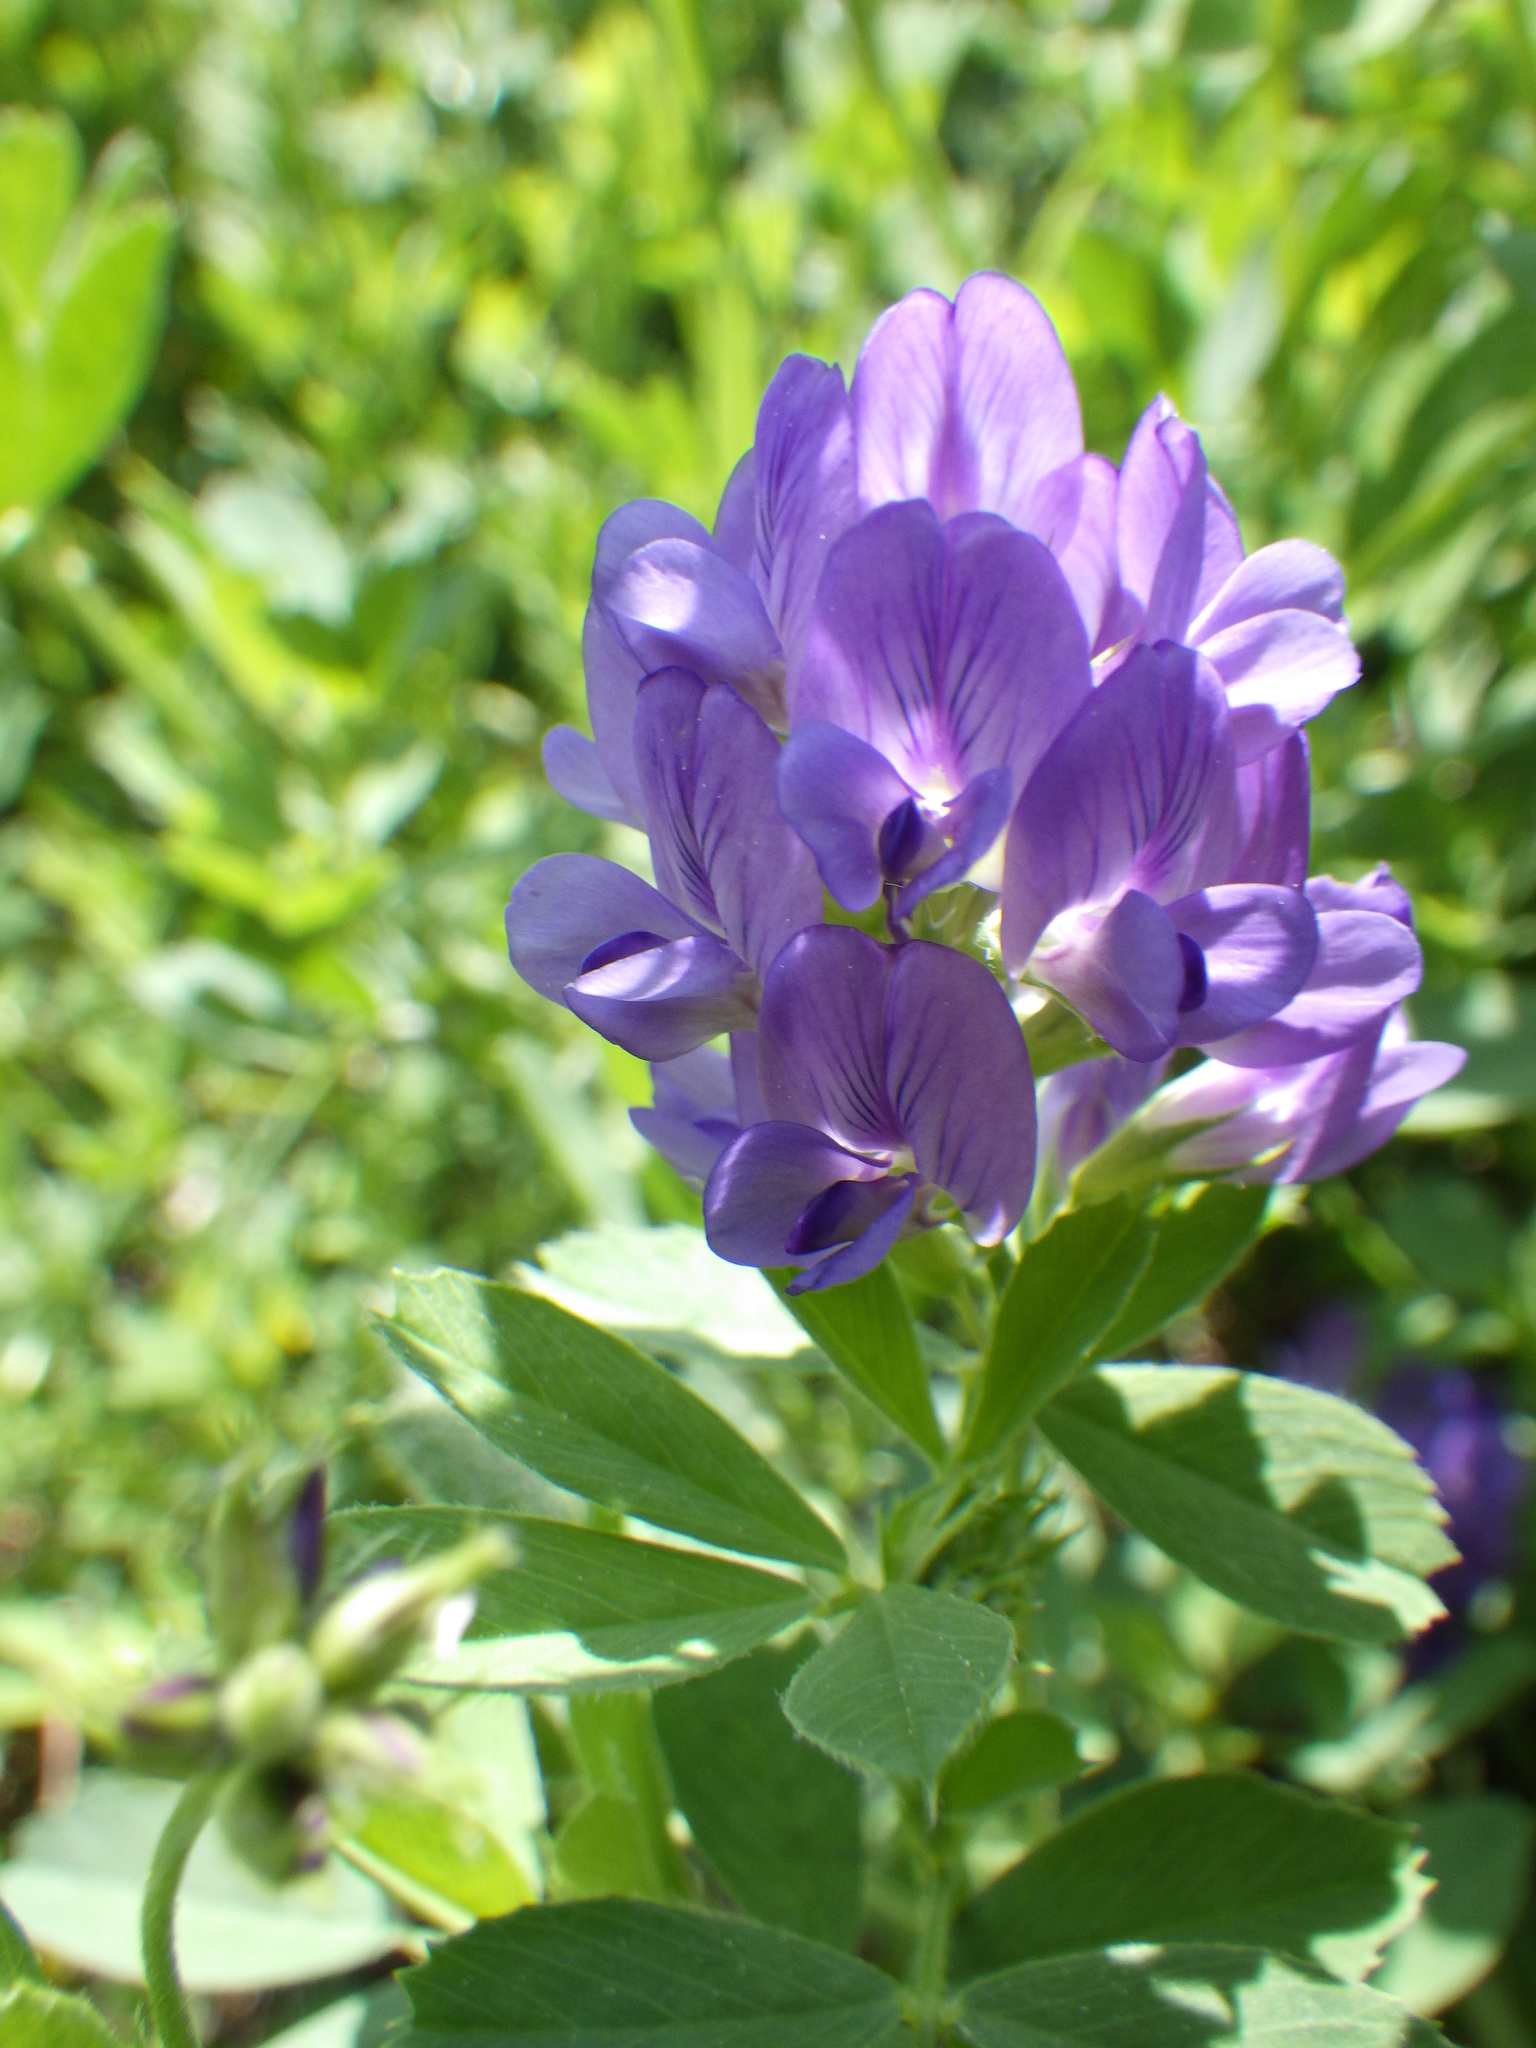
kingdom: Plantae
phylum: Tracheophyta
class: Magnoliopsida
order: Fabales
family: Fabaceae
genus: Medicago
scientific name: Medicago sativa
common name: Alfalfa
